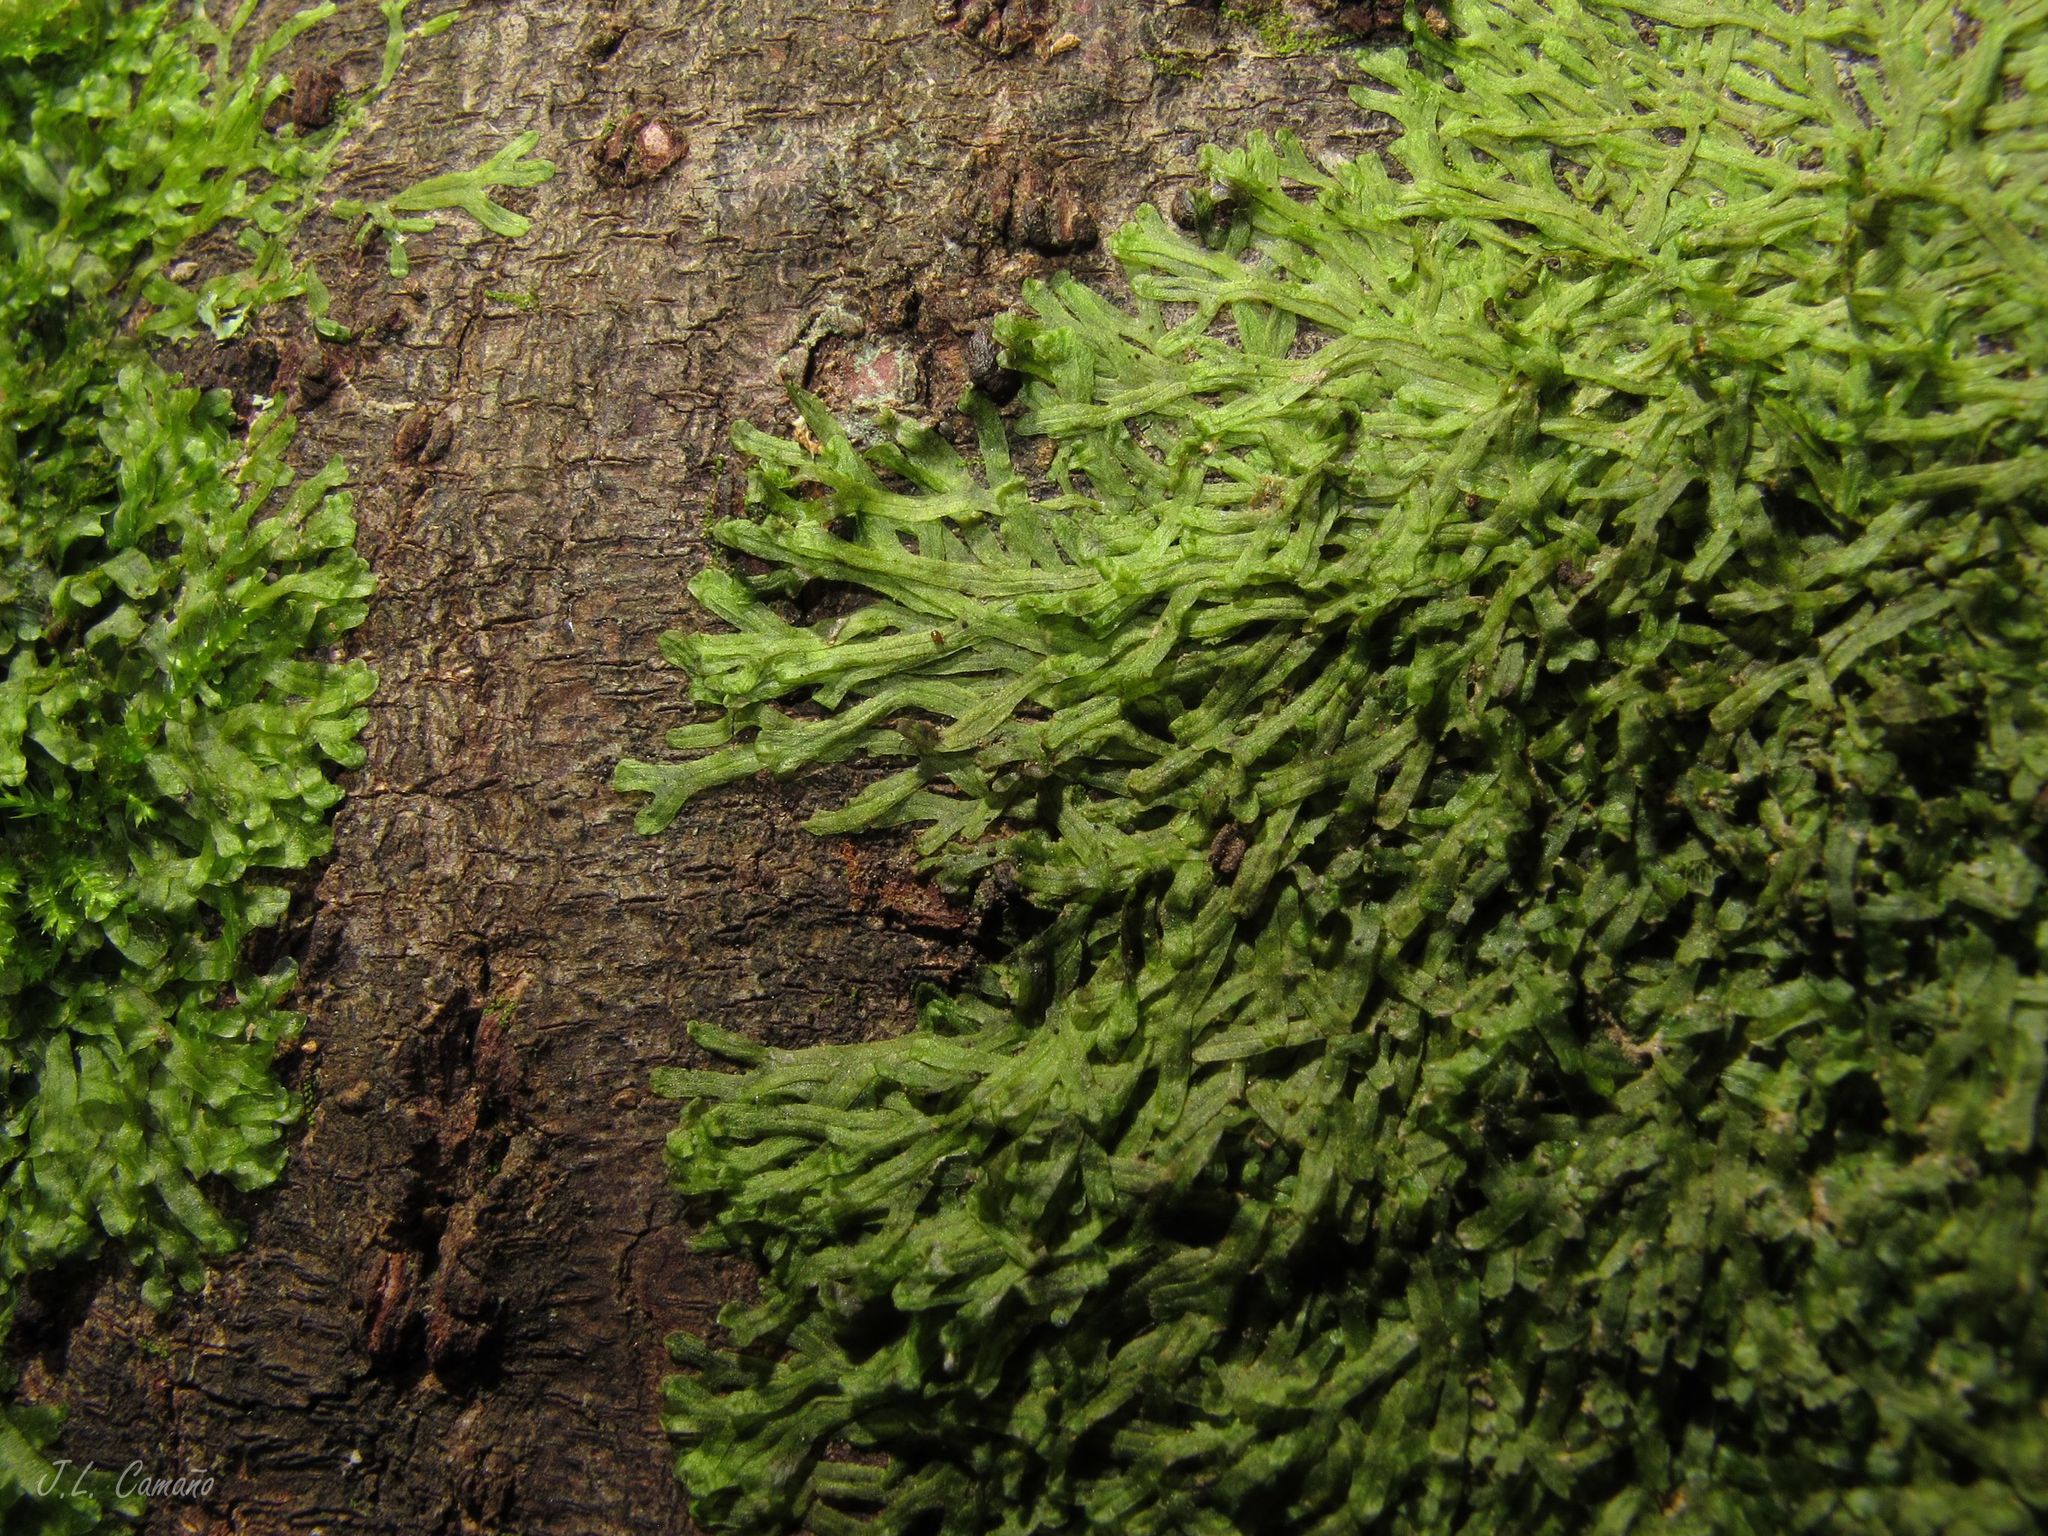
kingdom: Plantae
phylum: Marchantiophyta
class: Jungermanniopsida
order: Metzgeriales
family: Metzgeriaceae
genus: Metzgeria
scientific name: Metzgeria furcata
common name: Forked veilwort
